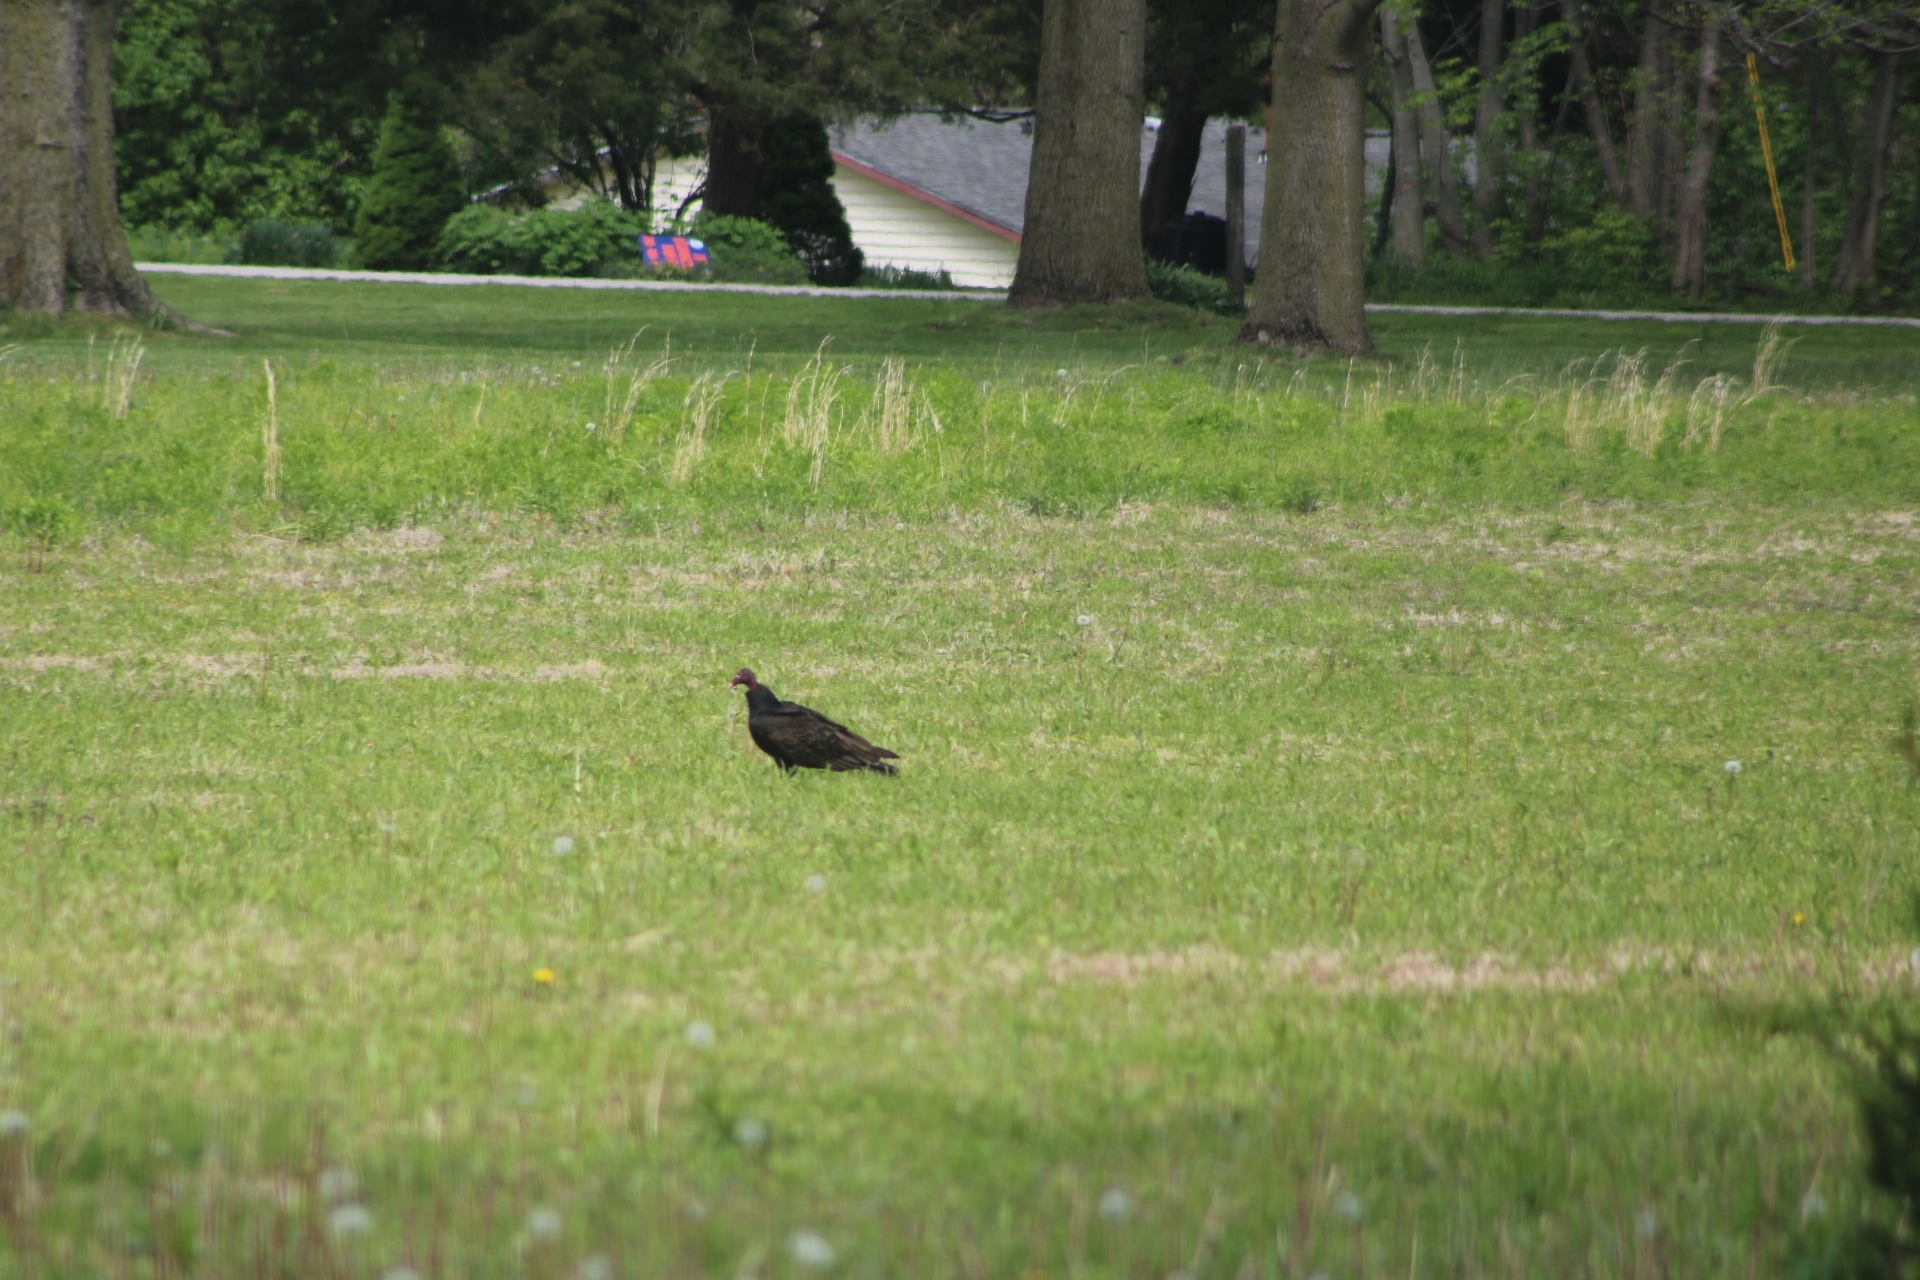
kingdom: Animalia
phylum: Chordata
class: Aves
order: Accipitriformes
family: Cathartidae
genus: Cathartes
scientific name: Cathartes aura
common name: Turkey vulture
